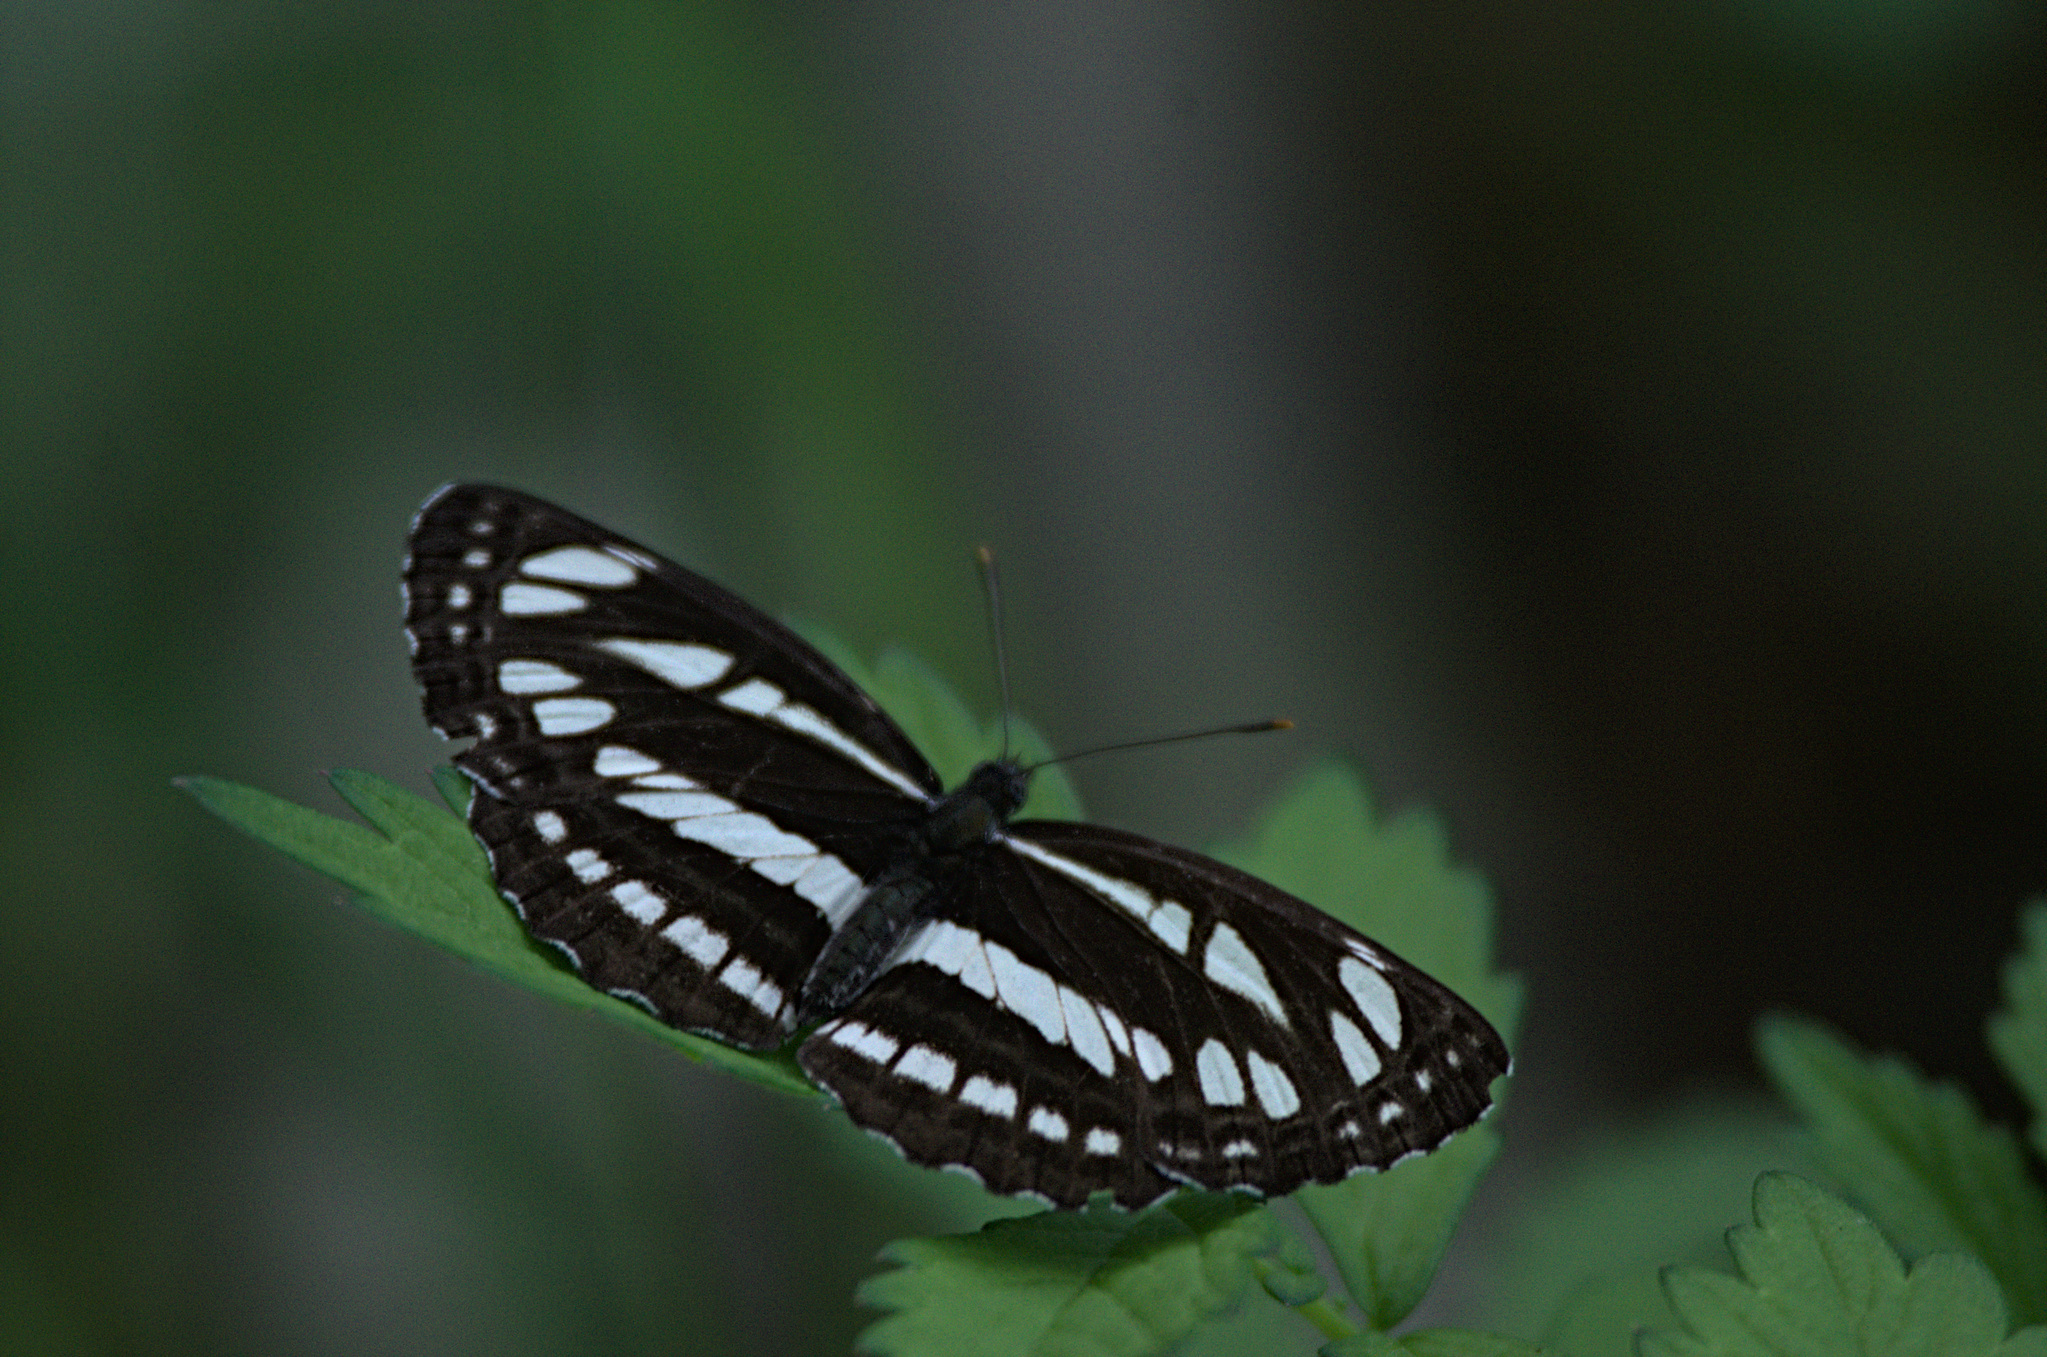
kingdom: Animalia
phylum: Arthropoda
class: Insecta
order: Lepidoptera
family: Nymphalidae
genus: Neptis
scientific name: Neptis sappho
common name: Common glider
